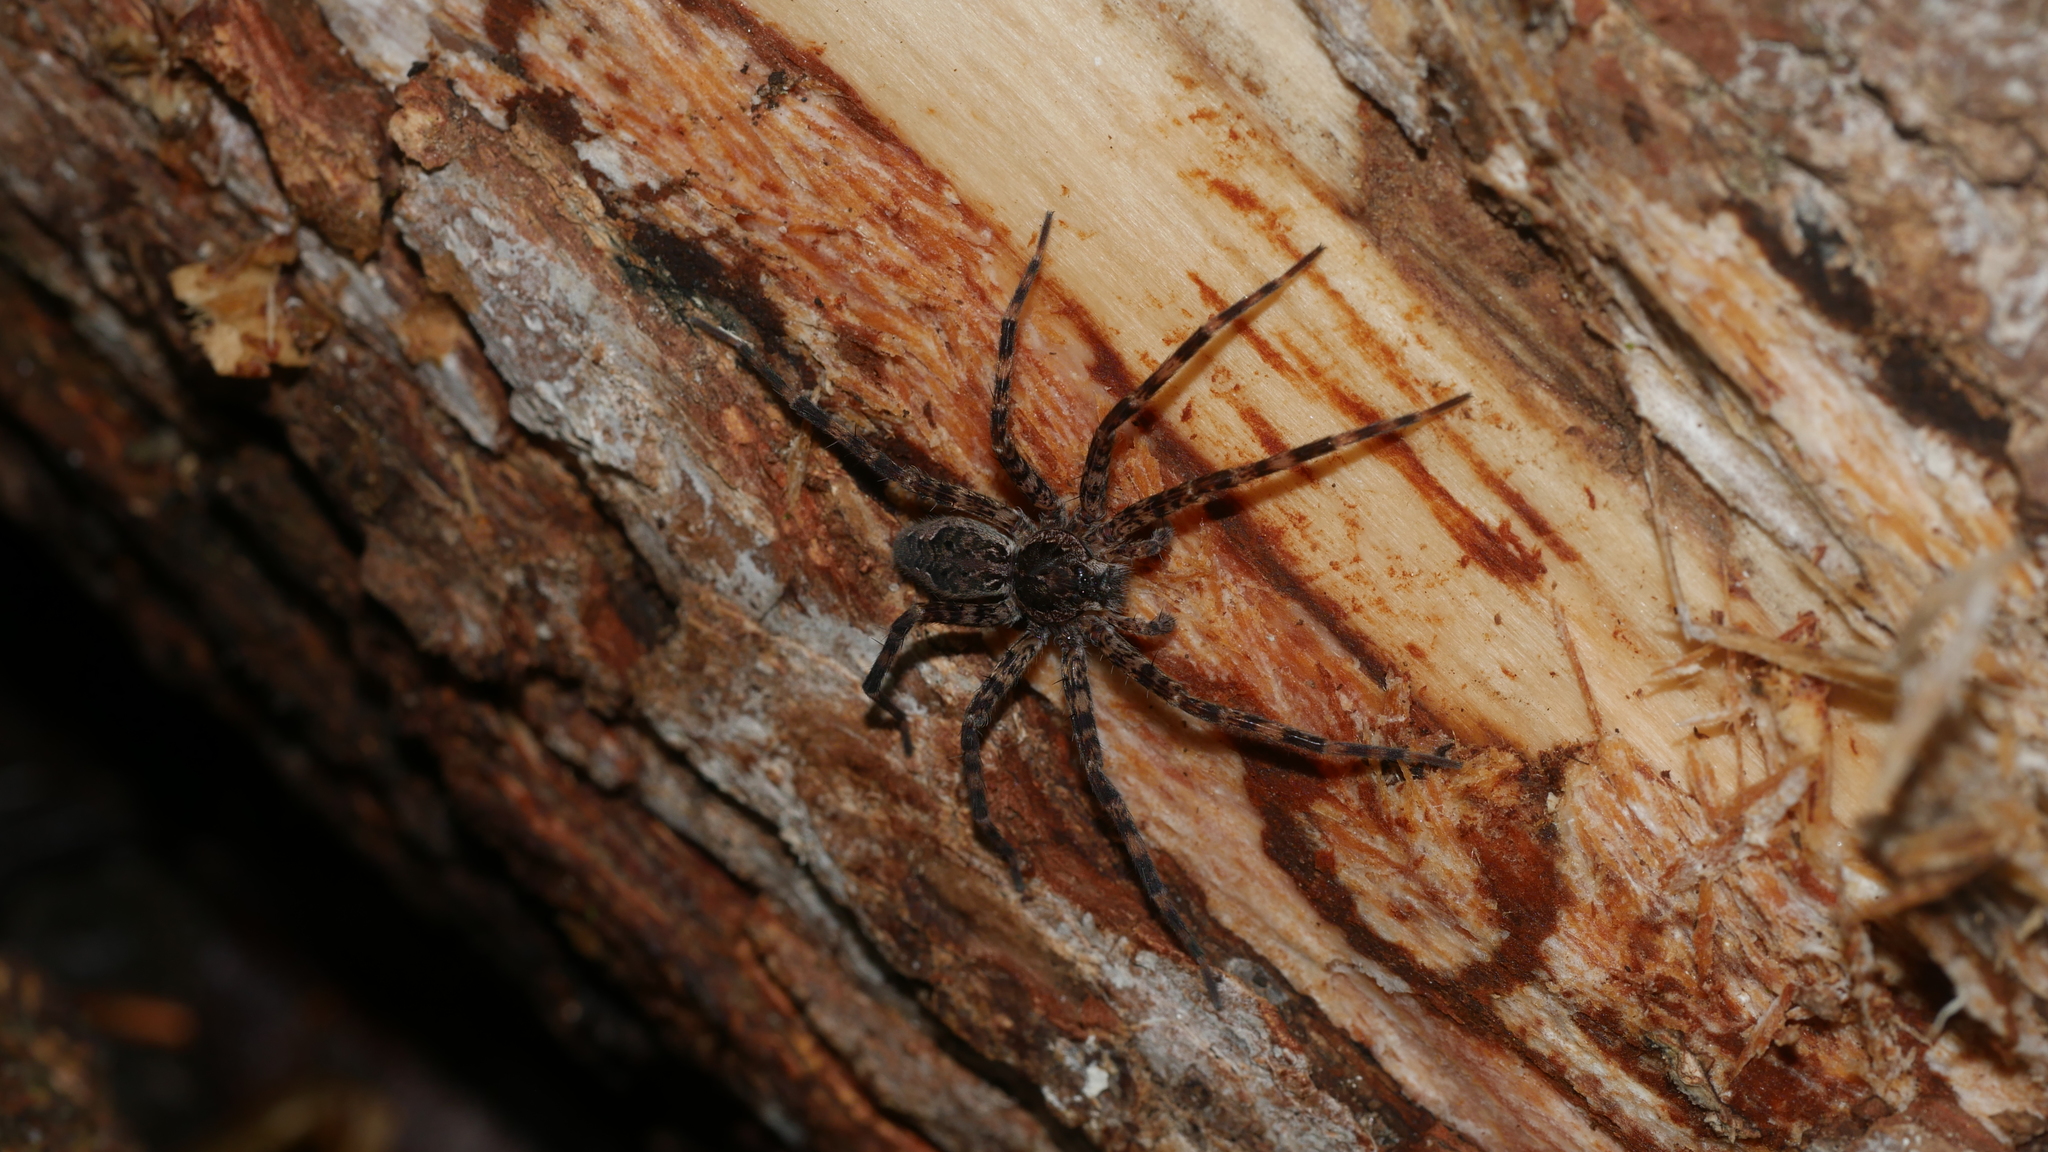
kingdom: Animalia
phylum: Arthropoda
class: Arachnida
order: Araneae
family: Pisauridae
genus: Dolomedes
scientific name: Dolomedes tenebrosus
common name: Dark fishing spider
